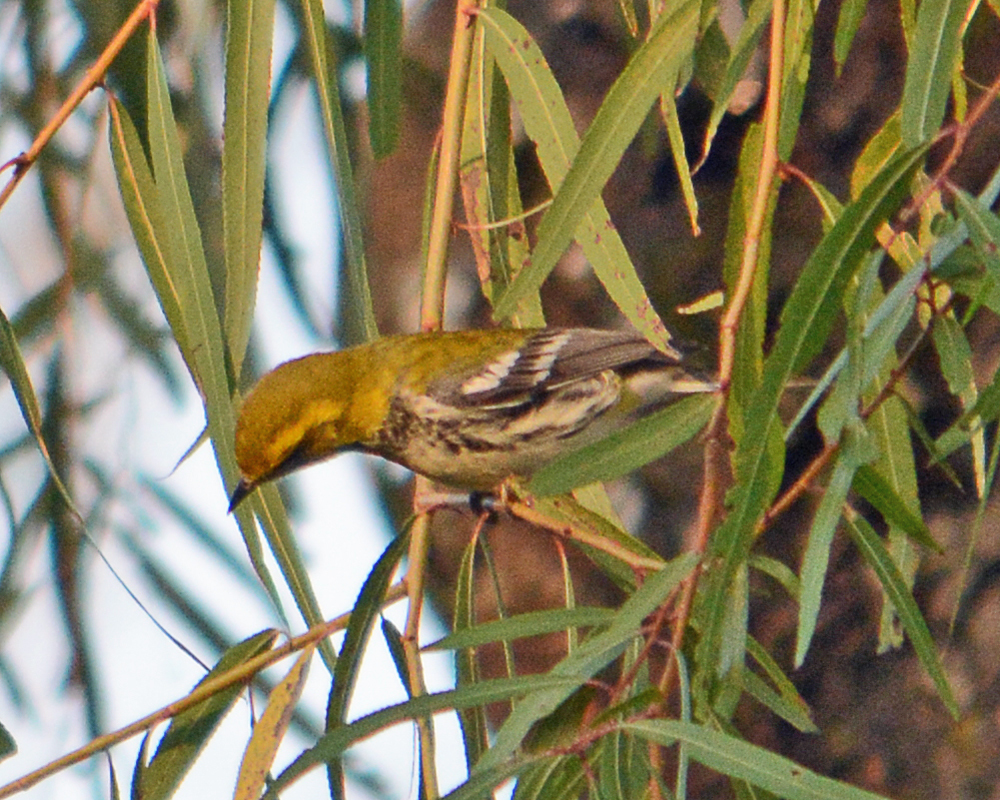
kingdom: Animalia
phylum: Chordata
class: Aves
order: Passeriformes
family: Parulidae
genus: Setophaga
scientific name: Setophaga virens
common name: Black-throated green warbler
